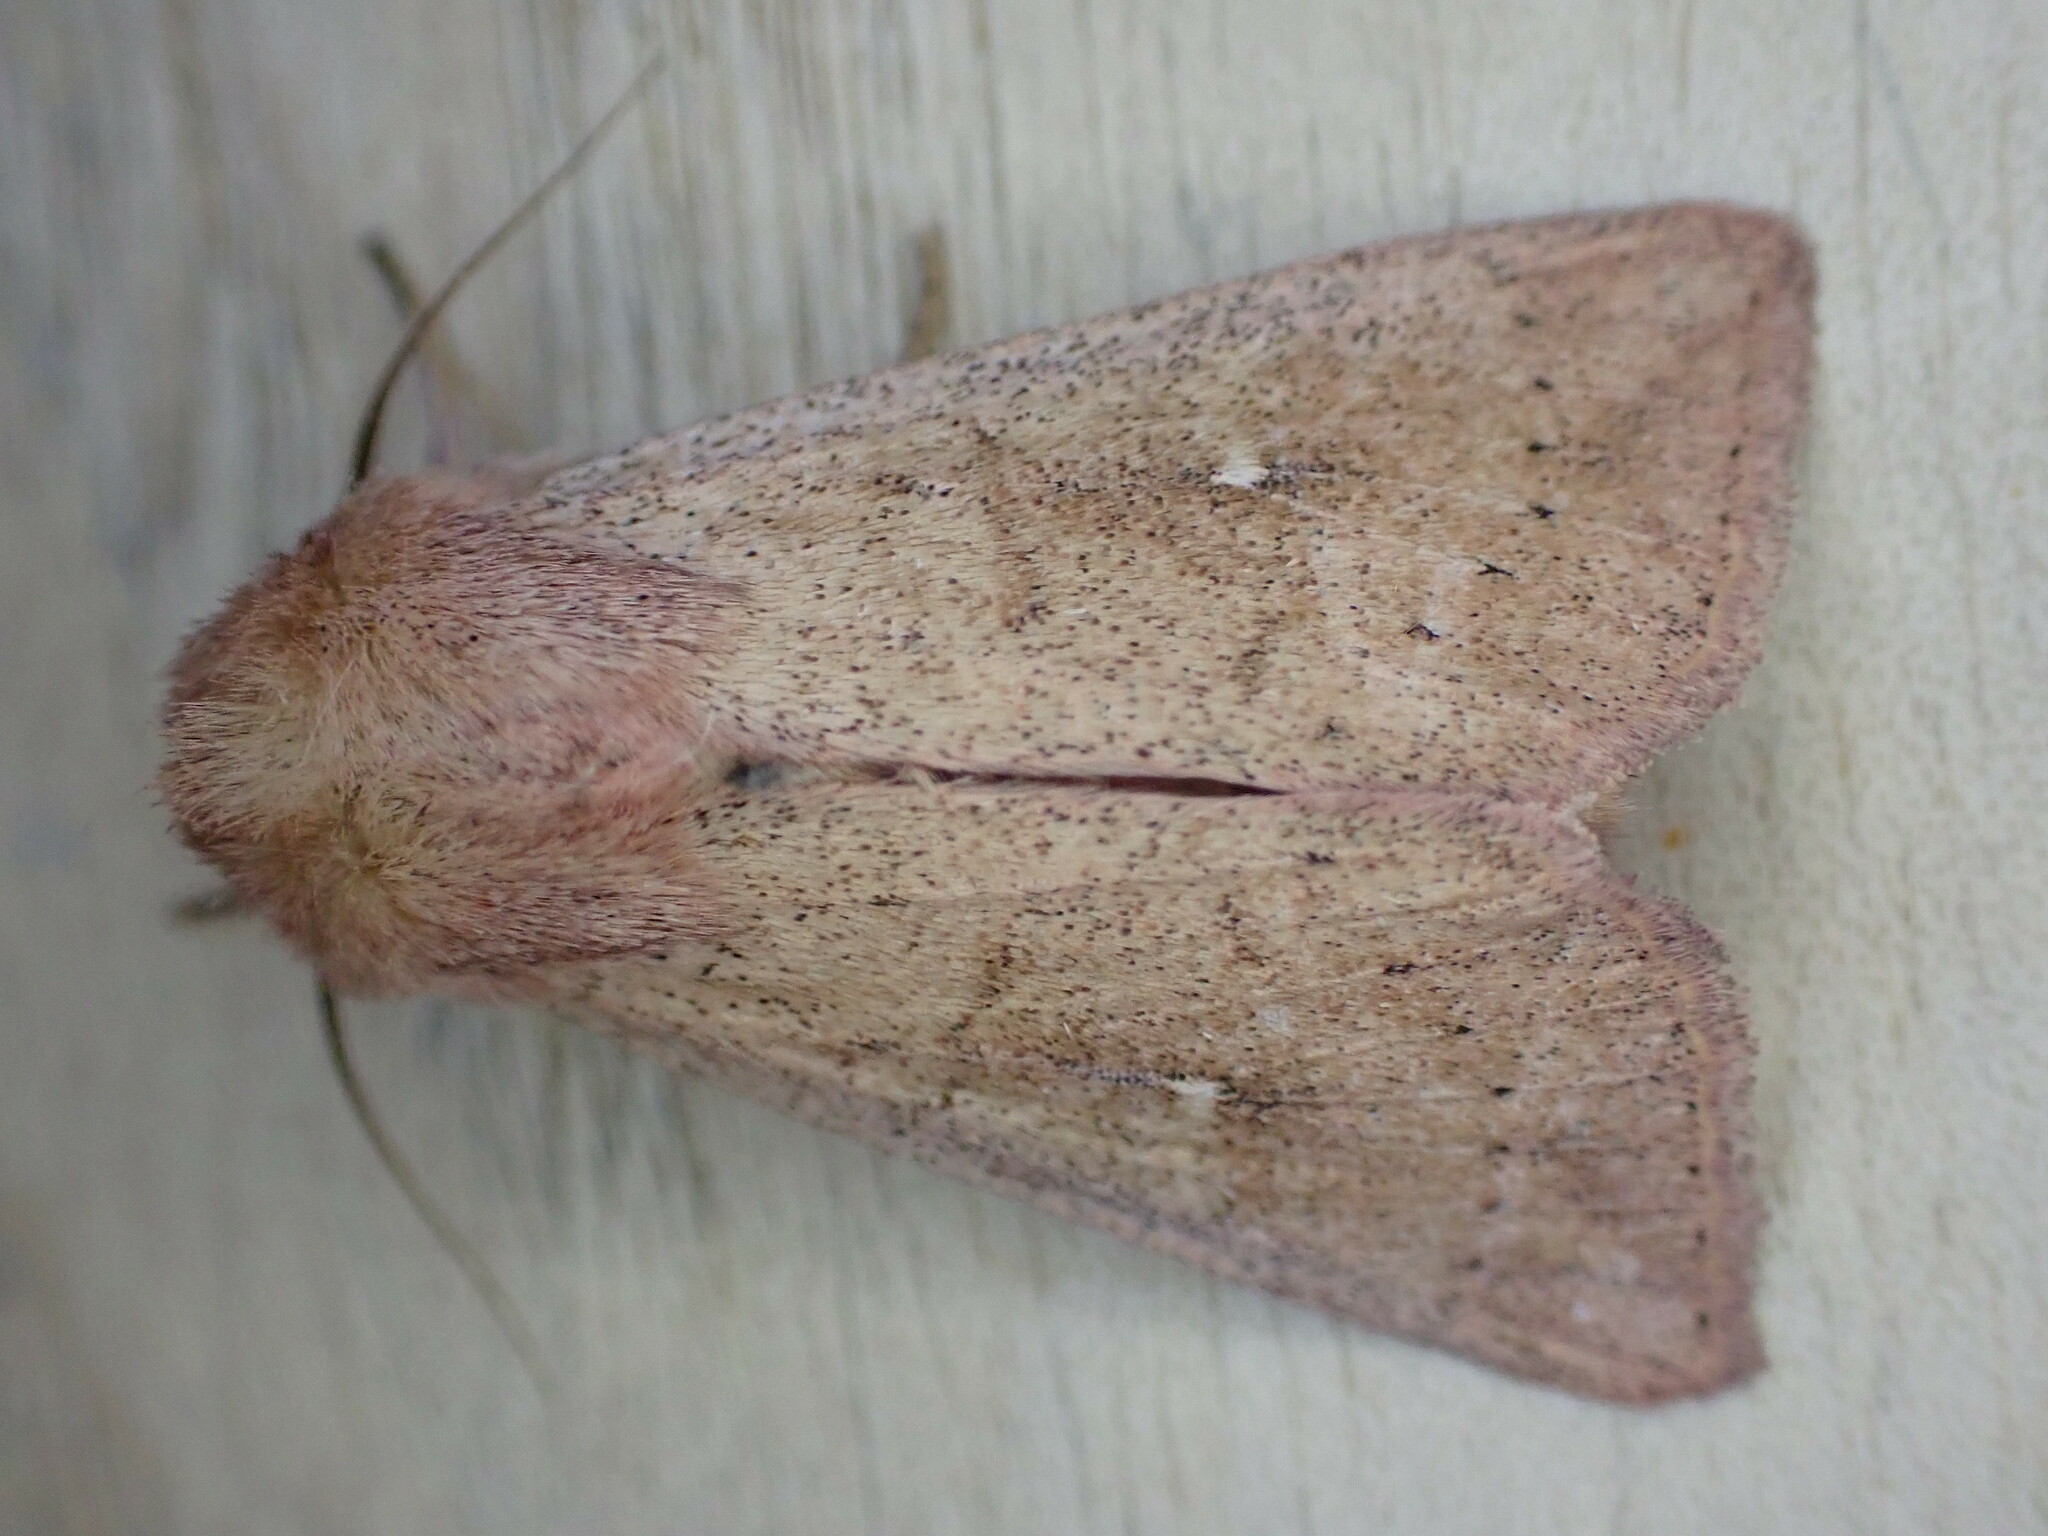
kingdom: Animalia
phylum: Arthropoda
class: Insecta
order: Lepidoptera
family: Noctuidae
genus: Mythimna
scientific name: Mythimna ferrago
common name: Clay
